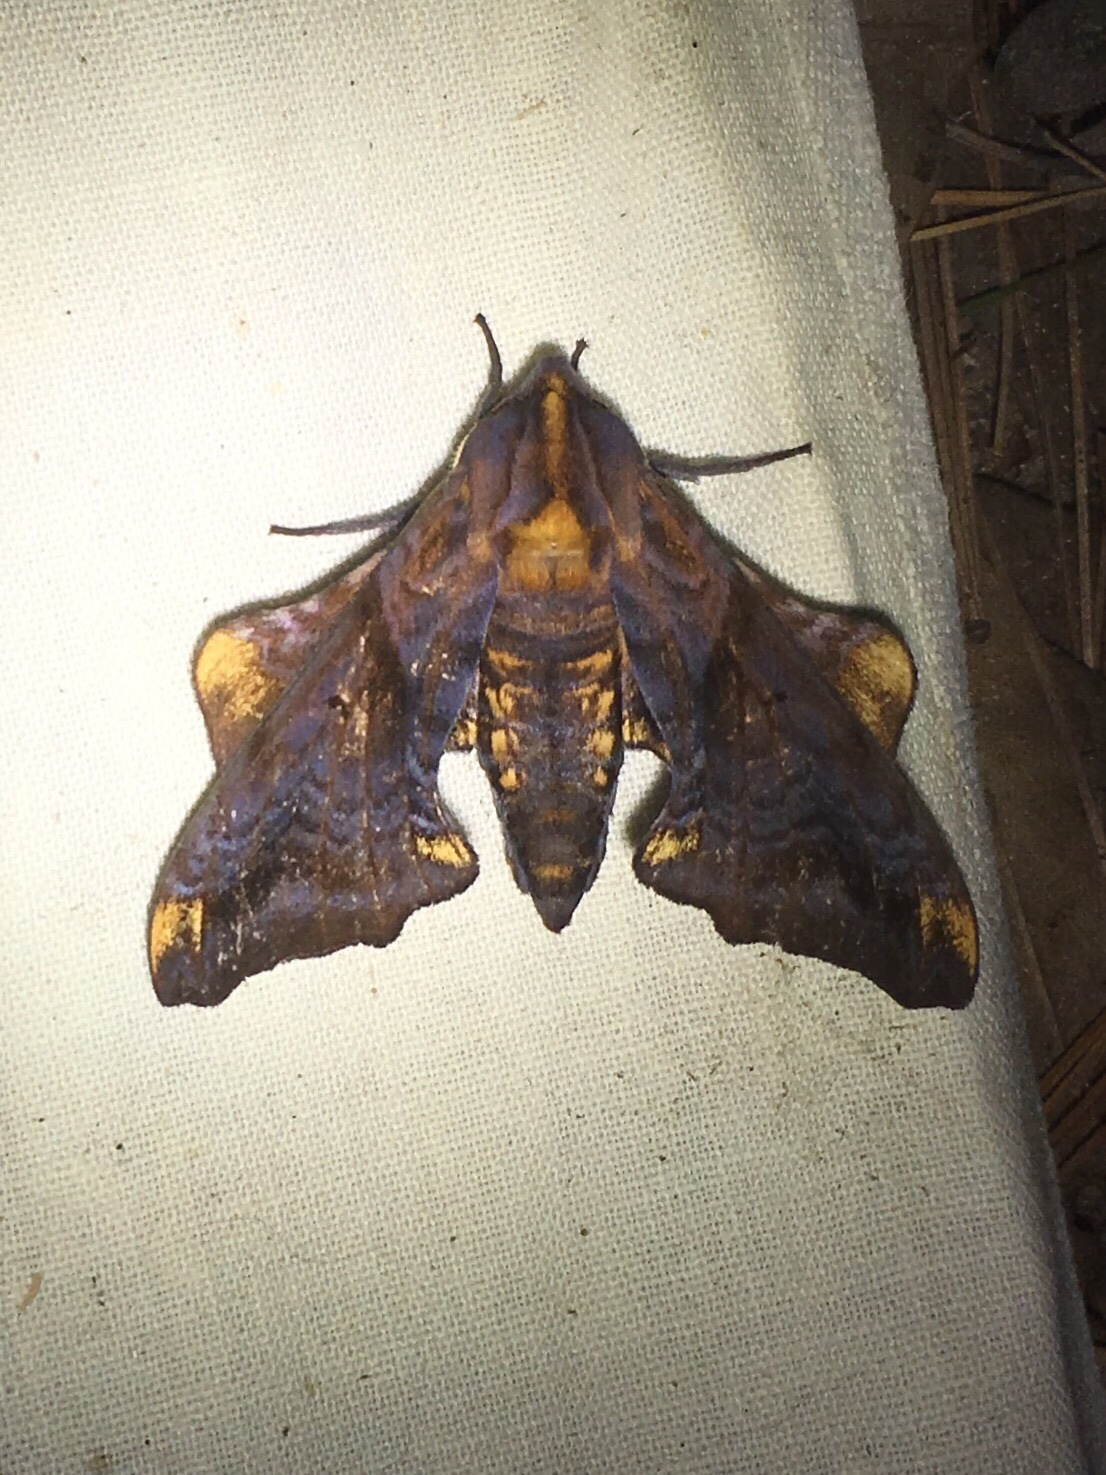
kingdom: Animalia
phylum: Arthropoda
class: Insecta
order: Lepidoptera
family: Sphingidae
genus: Paonias
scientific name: Paonias myops
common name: Small-eyed sphinx
